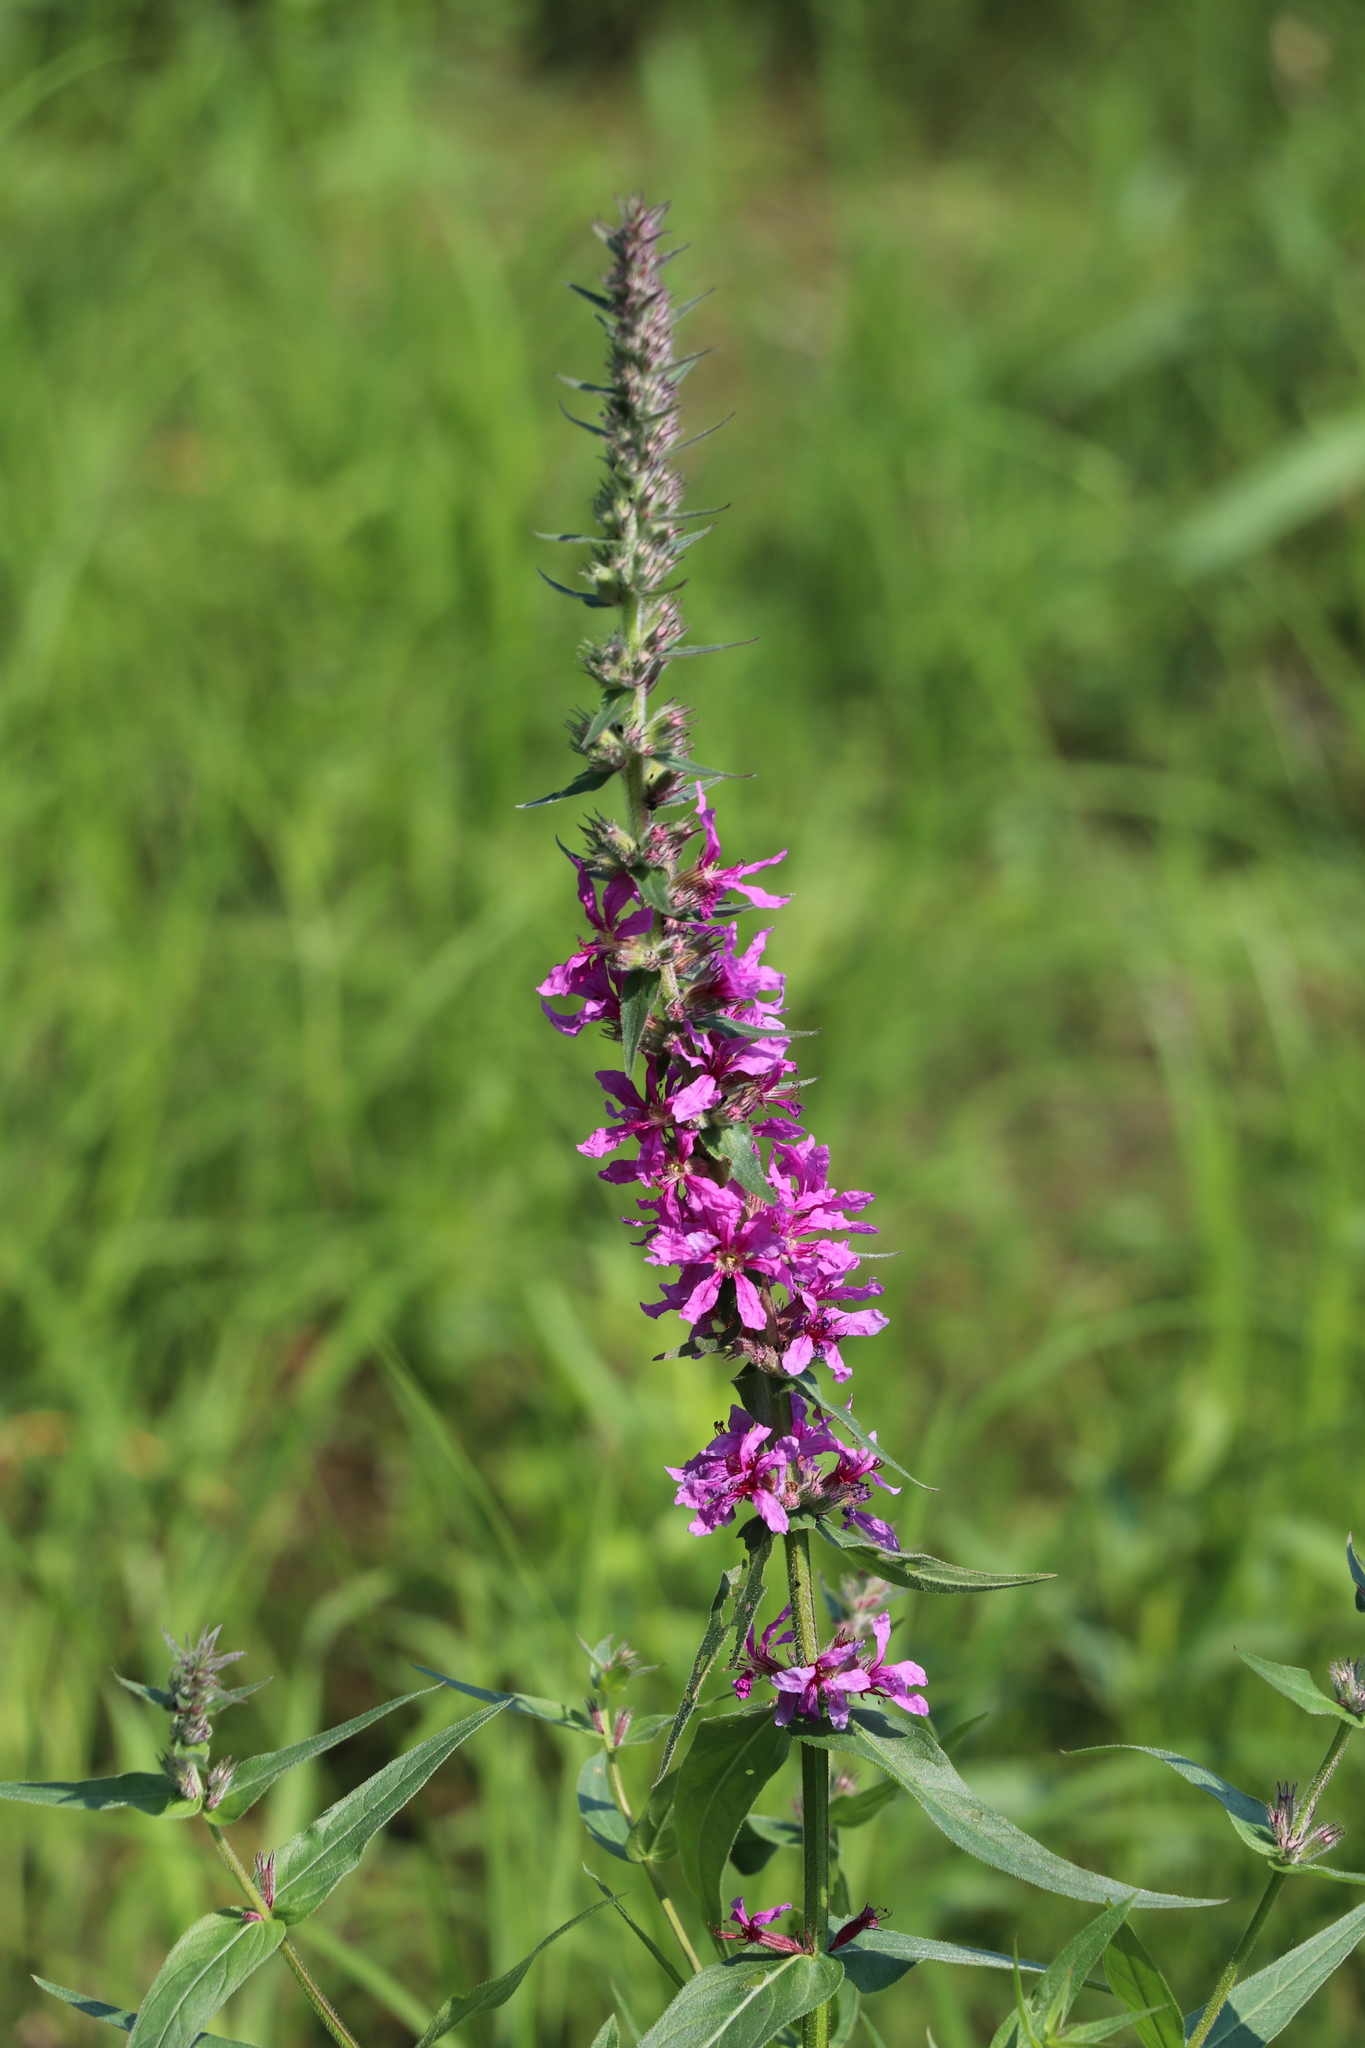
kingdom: Plantae
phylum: Tracheophyta
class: Magnoliopsida
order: Myrtales
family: Lythraceae
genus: Lythrum
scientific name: Lythrum salicaria
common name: Purple loosestrife
